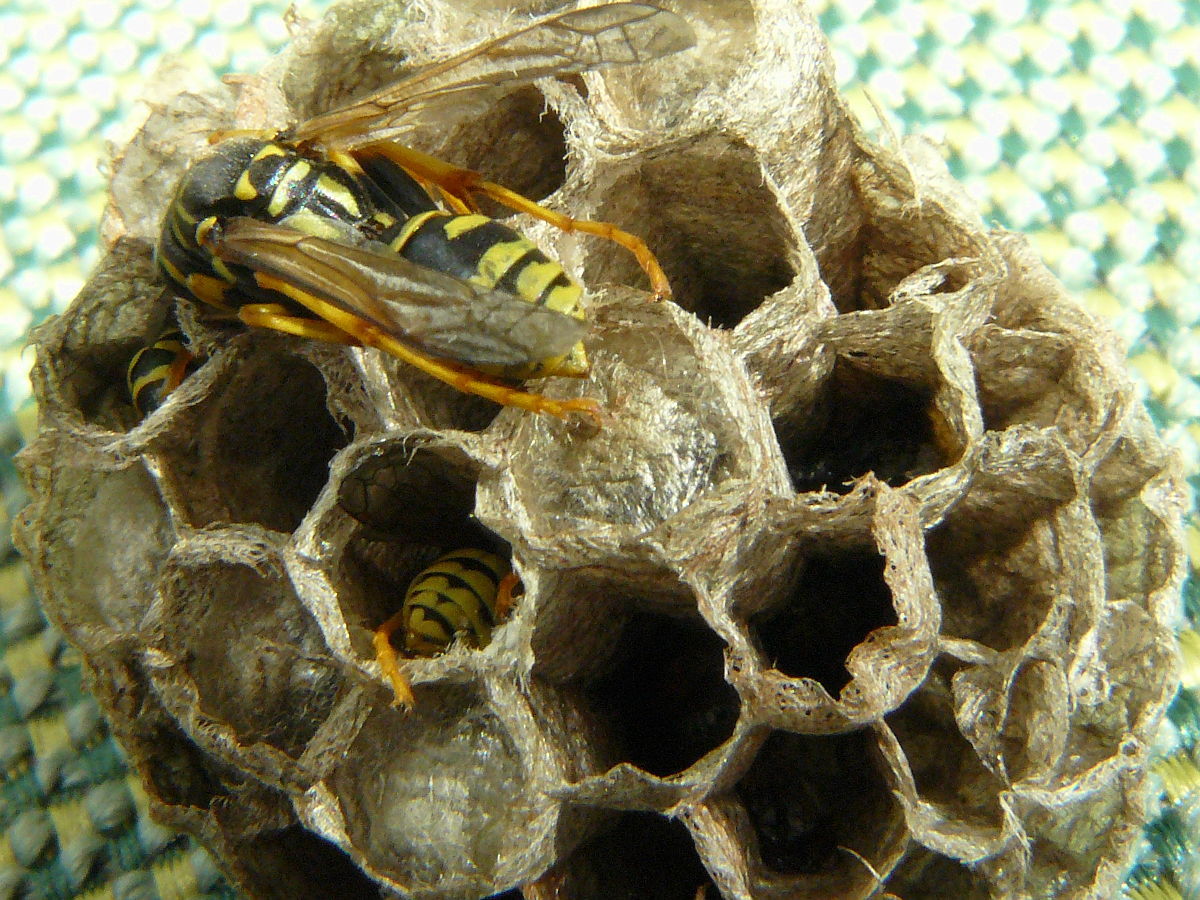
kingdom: Animalia
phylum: Arthropoda
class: Insecta
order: Hymenoptera
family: Eumenidae
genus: Polistes
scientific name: Polistes dominula
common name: Paper wasp
